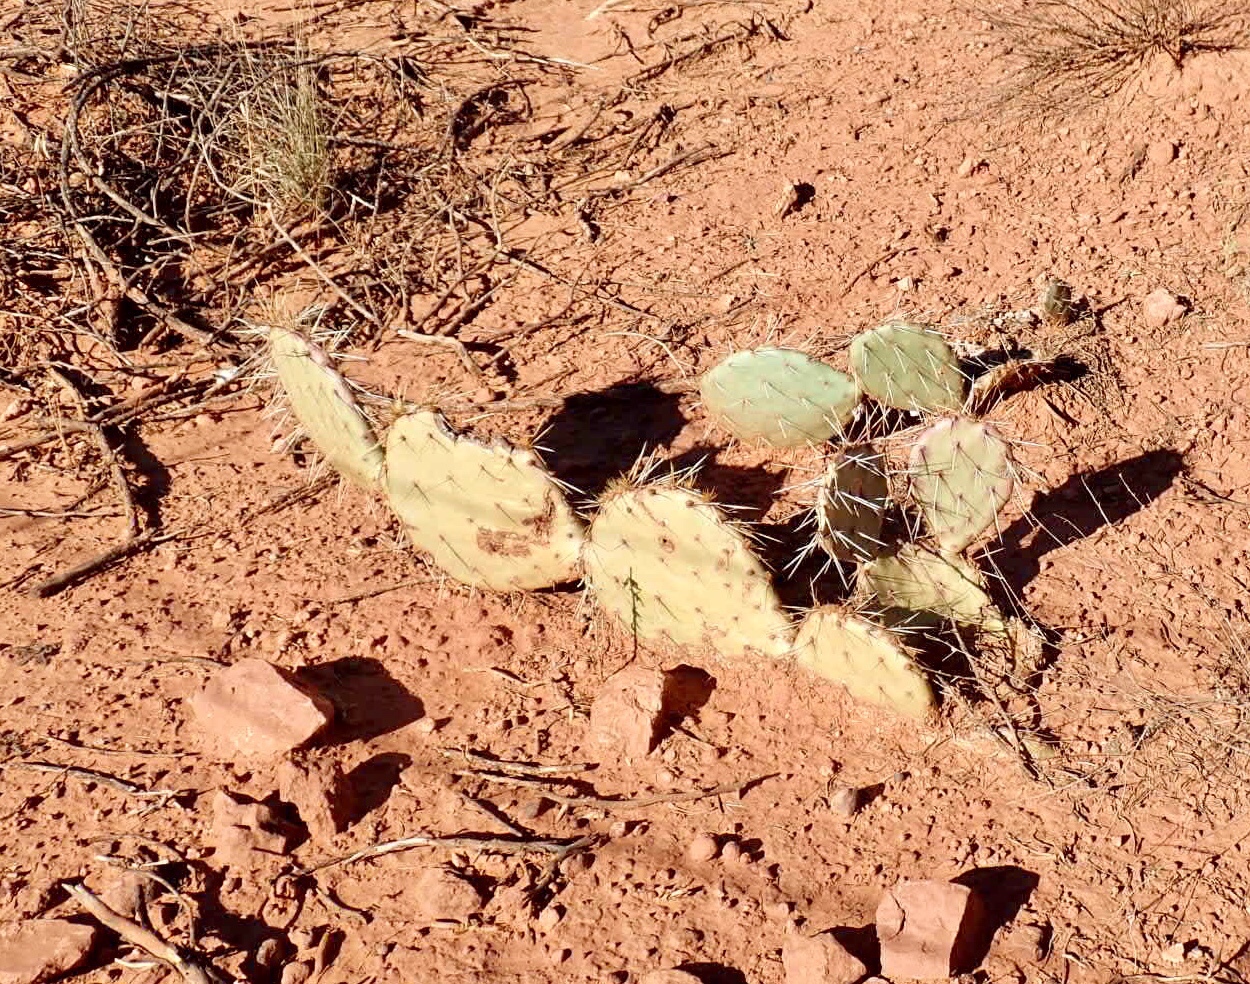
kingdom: Plantae
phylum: Tracheophyta
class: Magnoliopsida
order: Caryophyllales
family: Cactaceae
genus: Opuntia
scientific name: Opuntia engelmannii
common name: Cactus-apple
